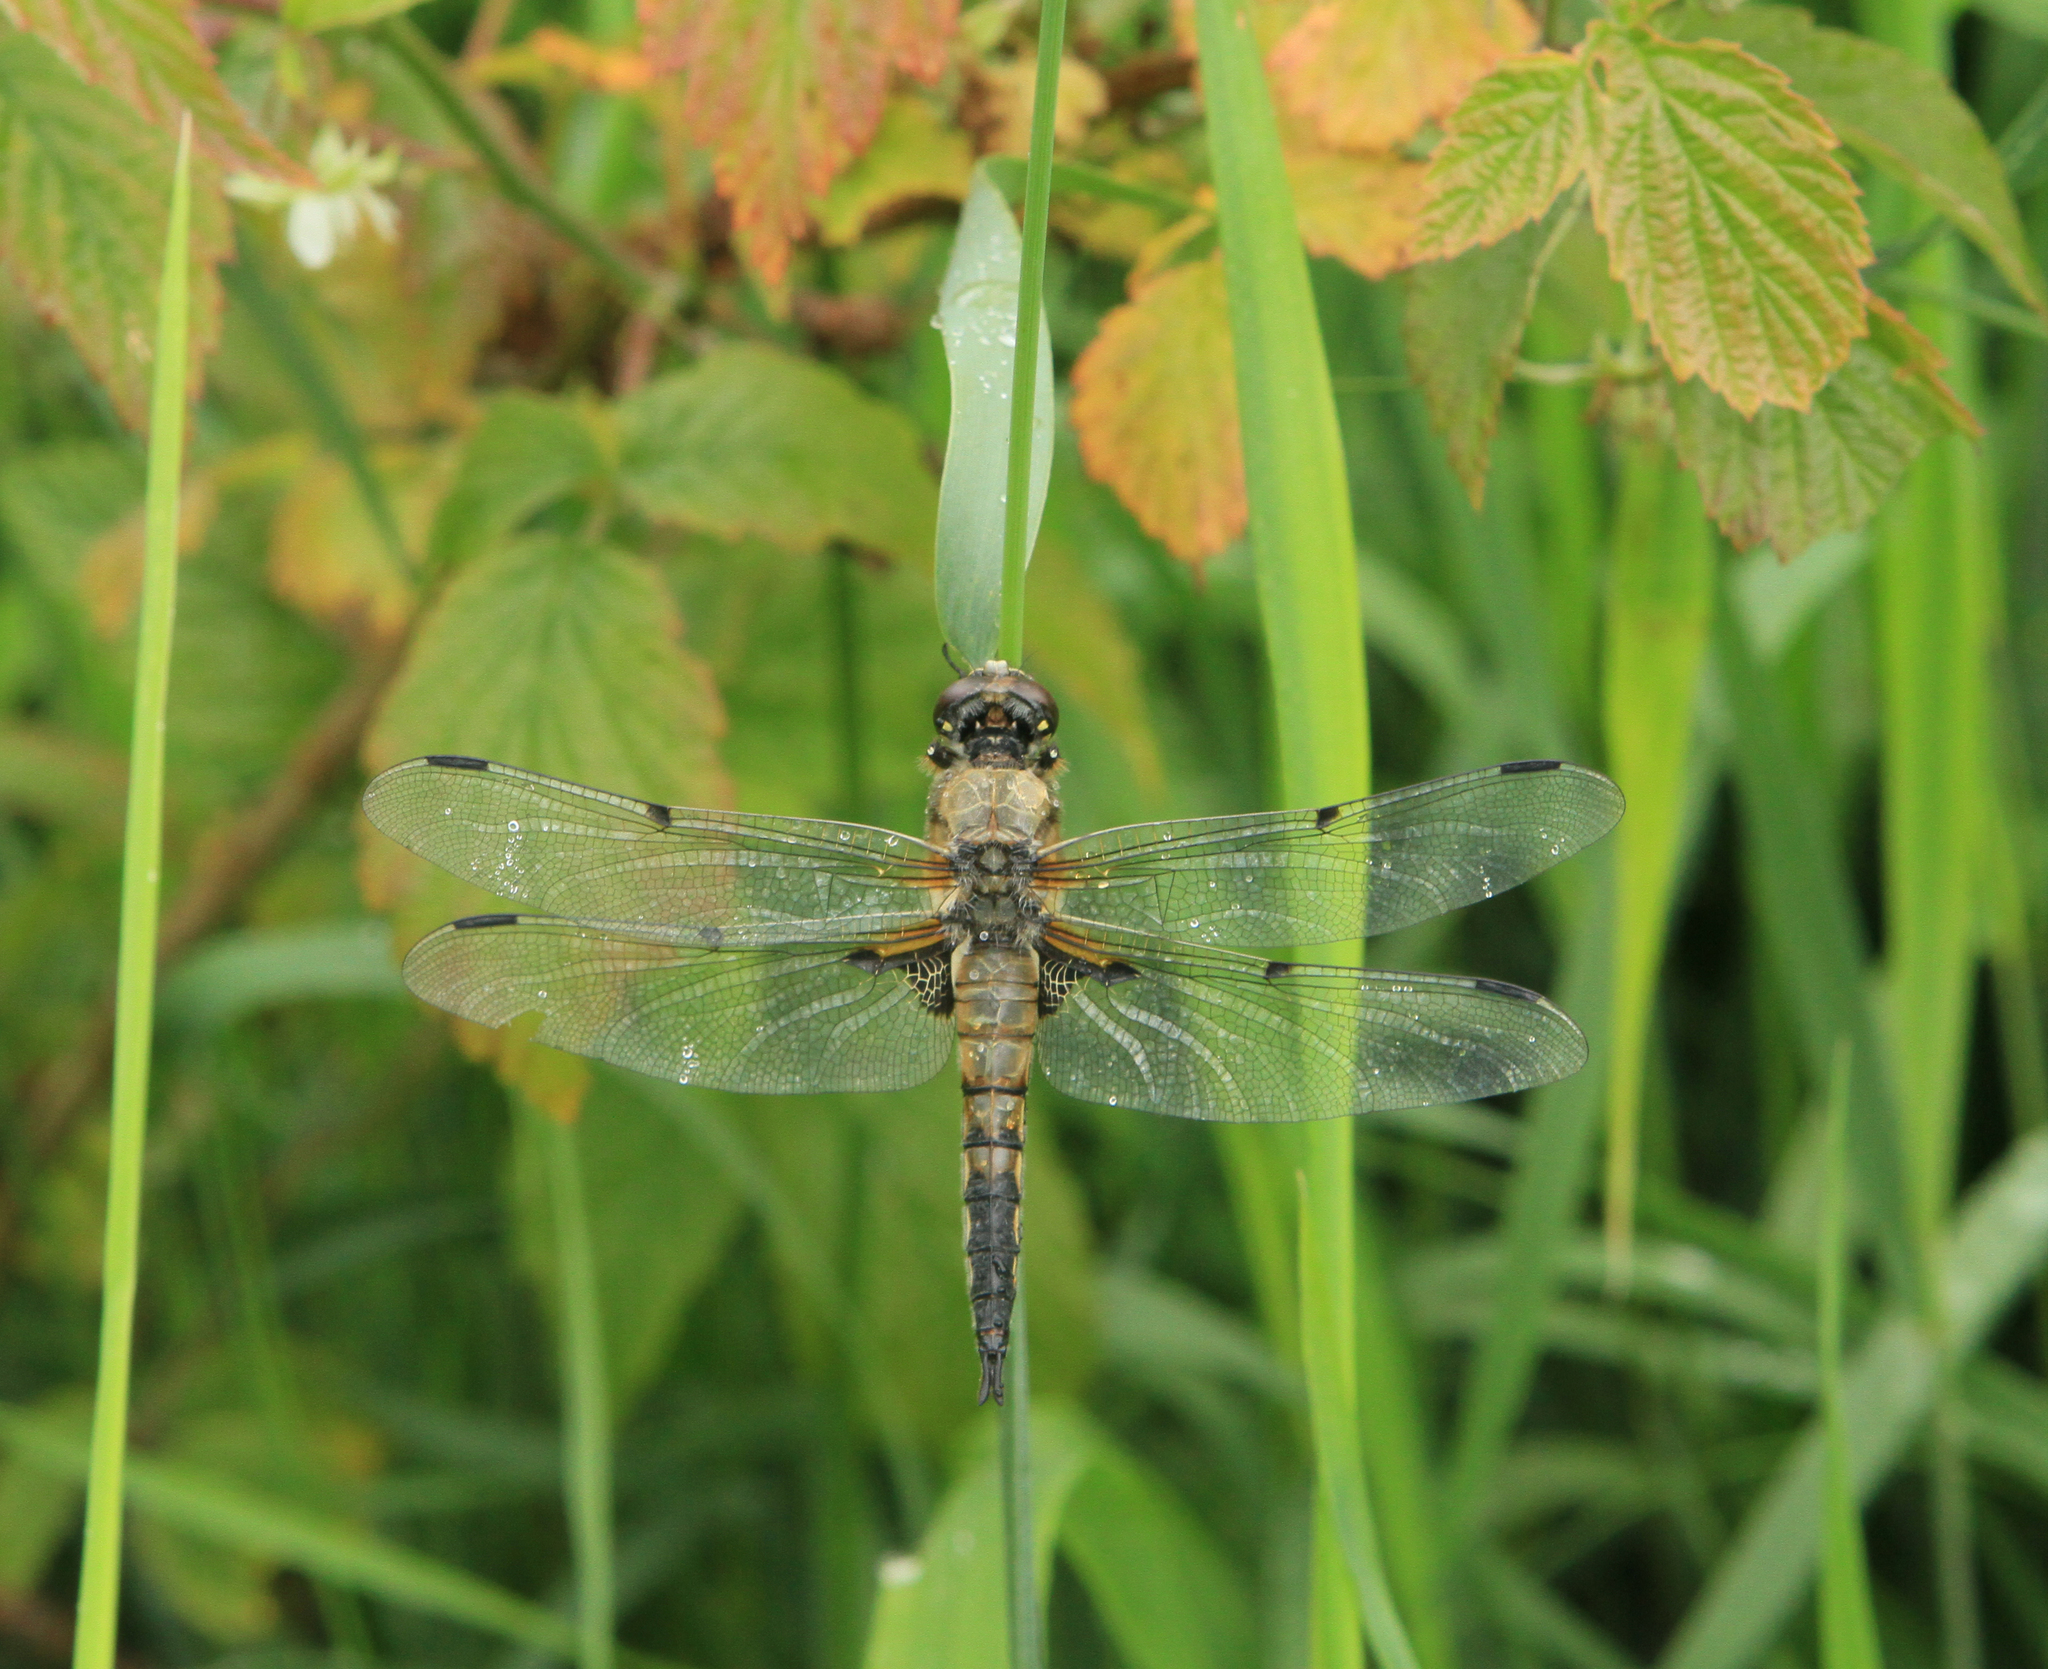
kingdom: Animalia
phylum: Arthropoda
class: Insecta
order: Odonata
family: Libellulidae
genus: Libellula
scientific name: Libellula quadrimaculata
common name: Four-spotted chaser
